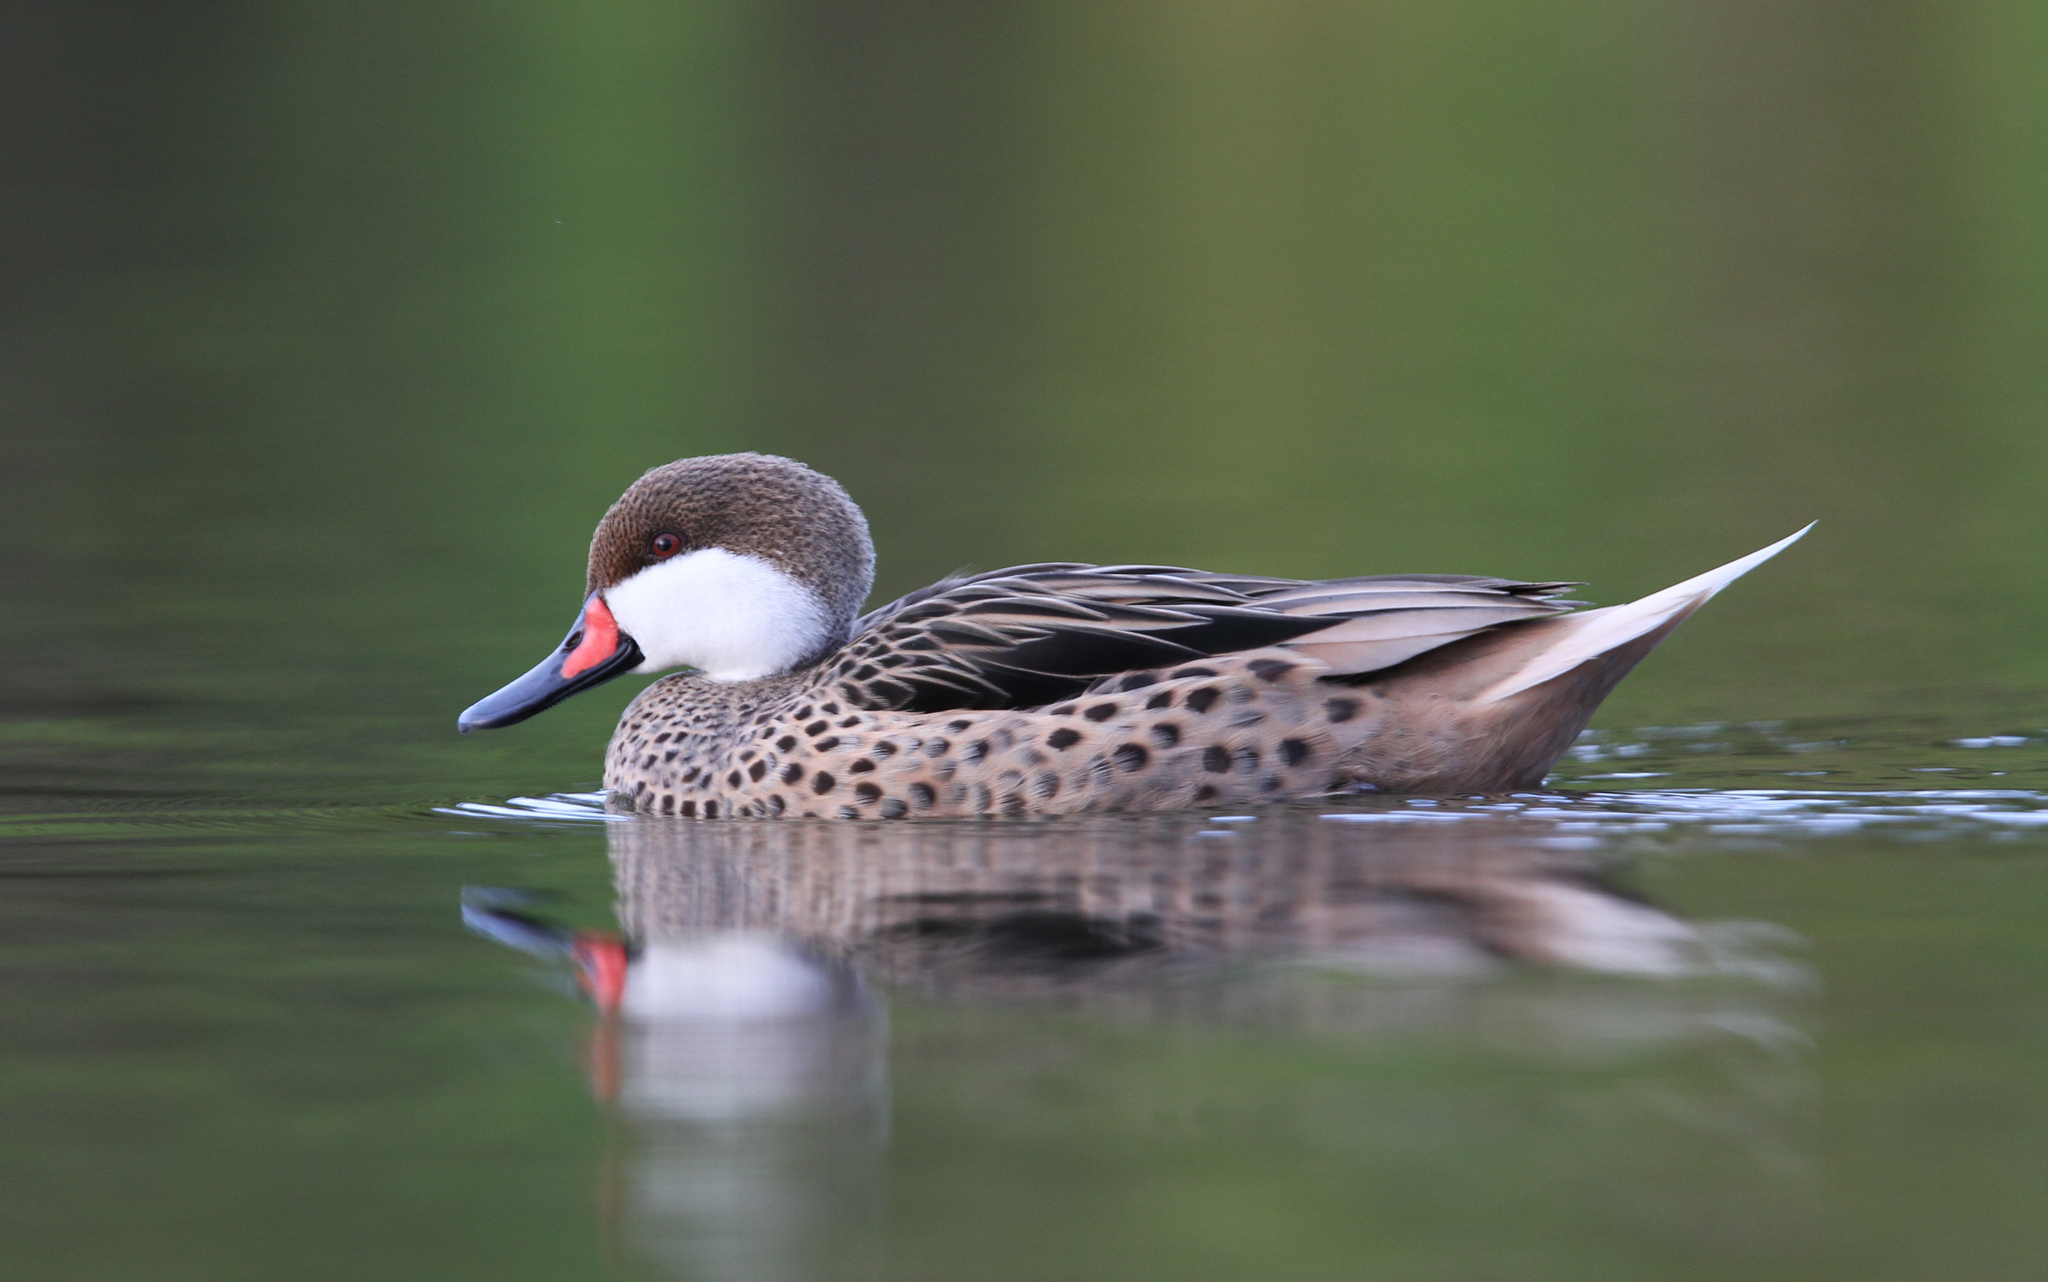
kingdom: Animalia
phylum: Chordata
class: Aves
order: Anseriformes
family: Anatidae
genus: Anas
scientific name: Anas bahamensis
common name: White-cheeked pintail
